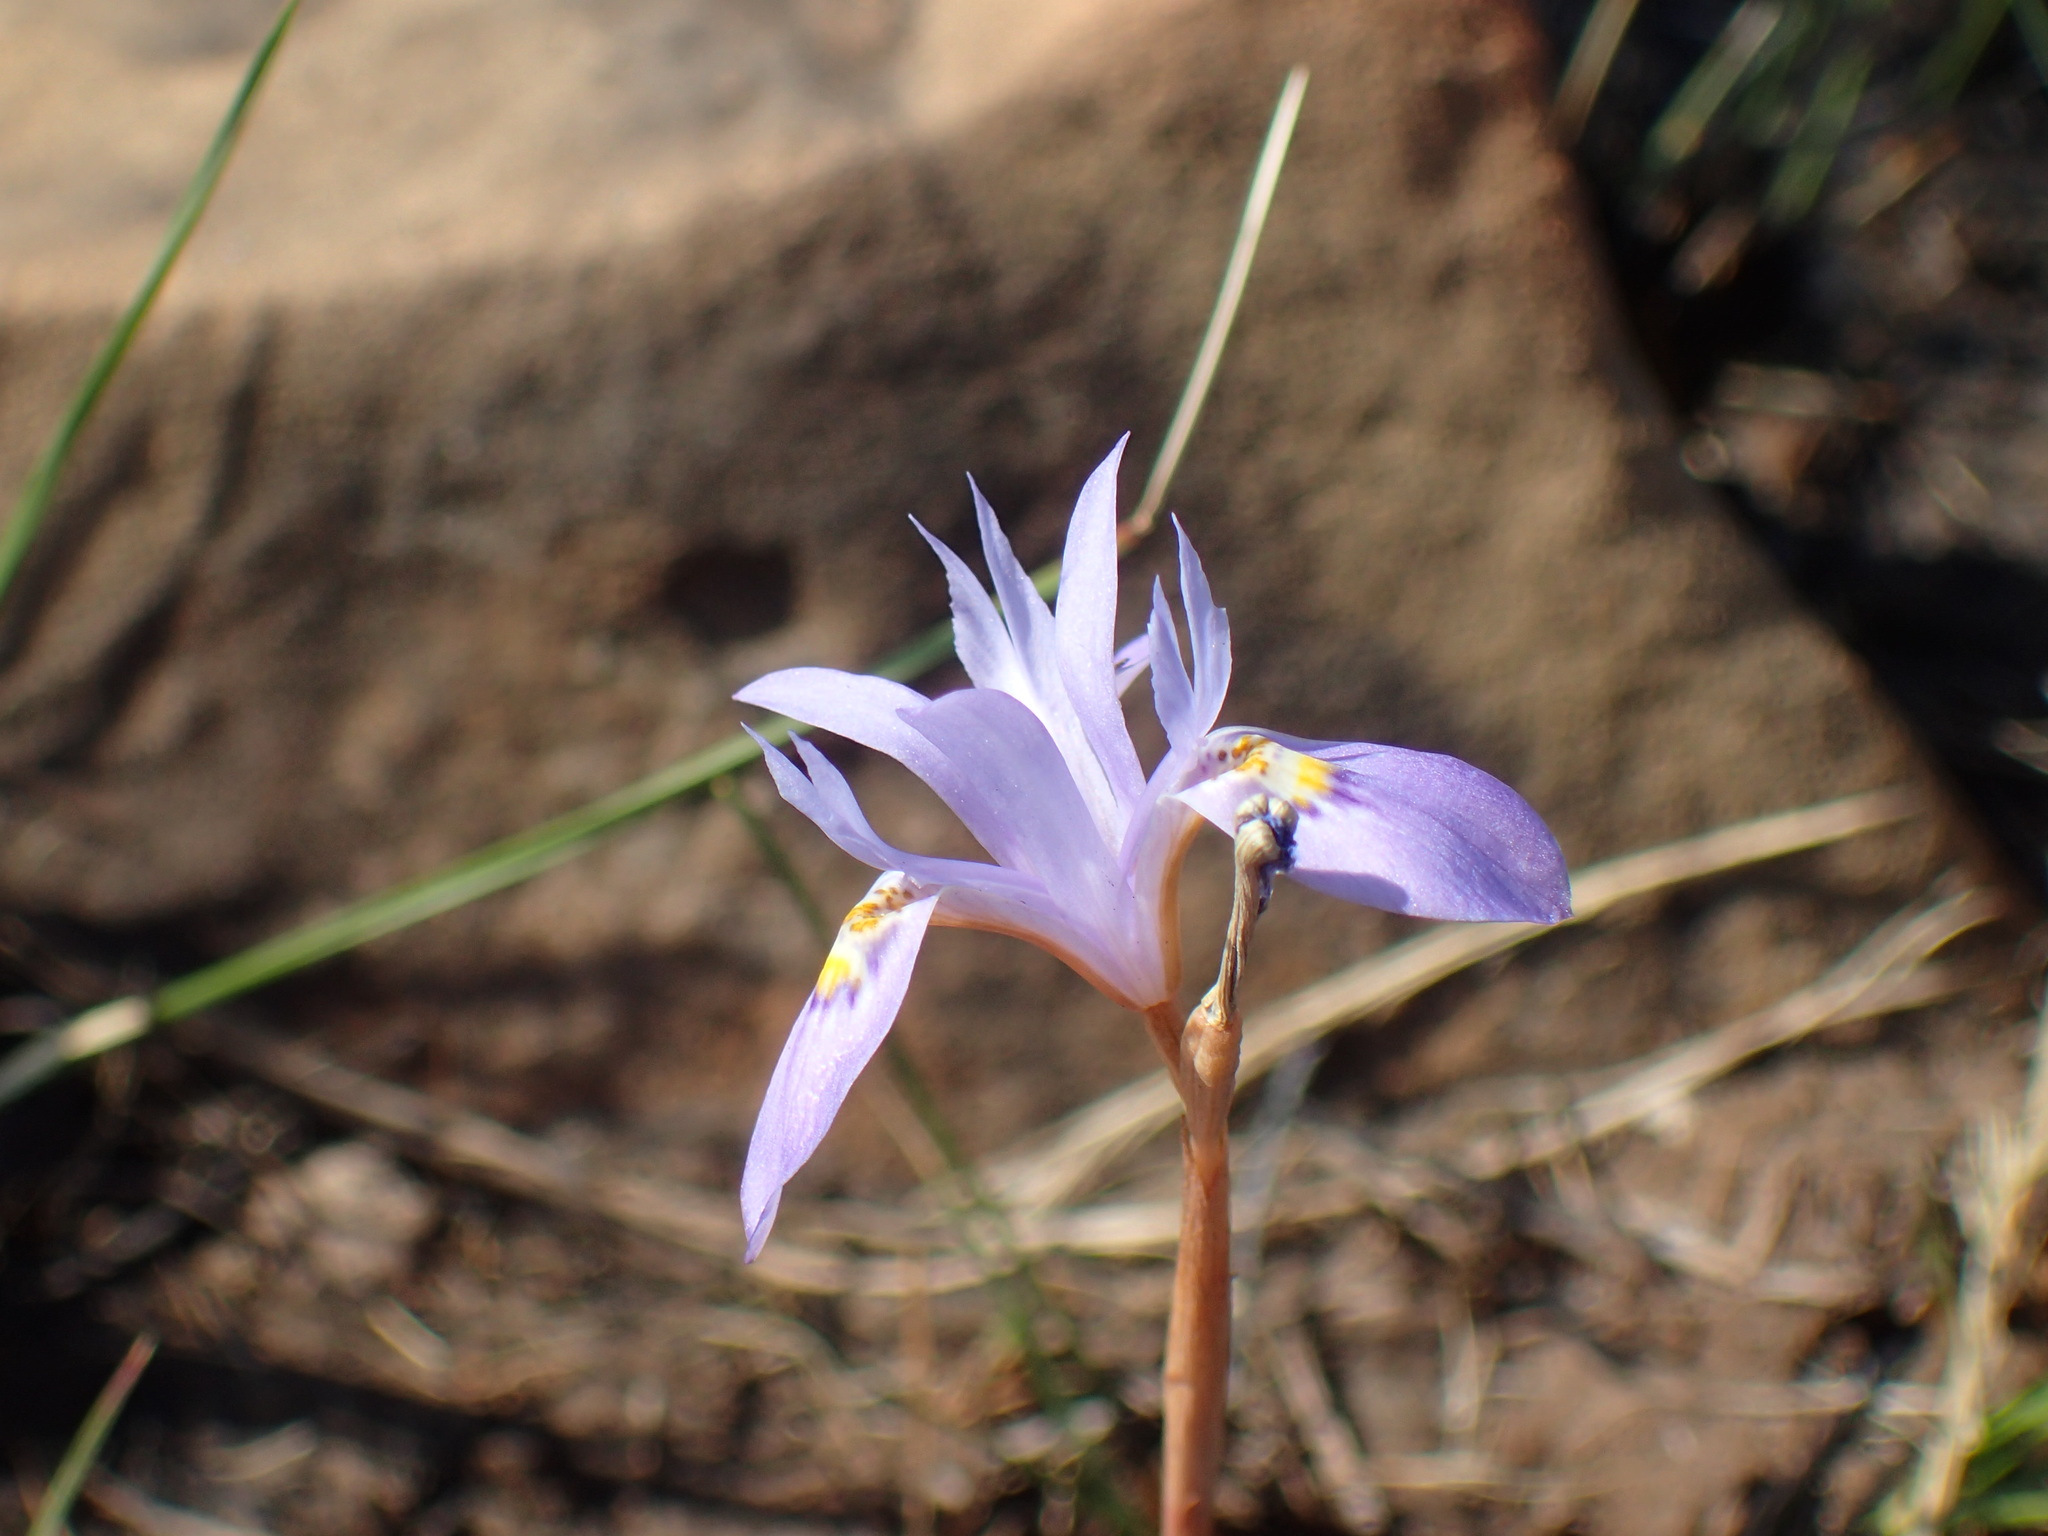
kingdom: Plantae
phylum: Tracheophyta
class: Liliopsida
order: Asparagales
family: Iridaceae
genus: Moraea
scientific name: Moraea stricta
